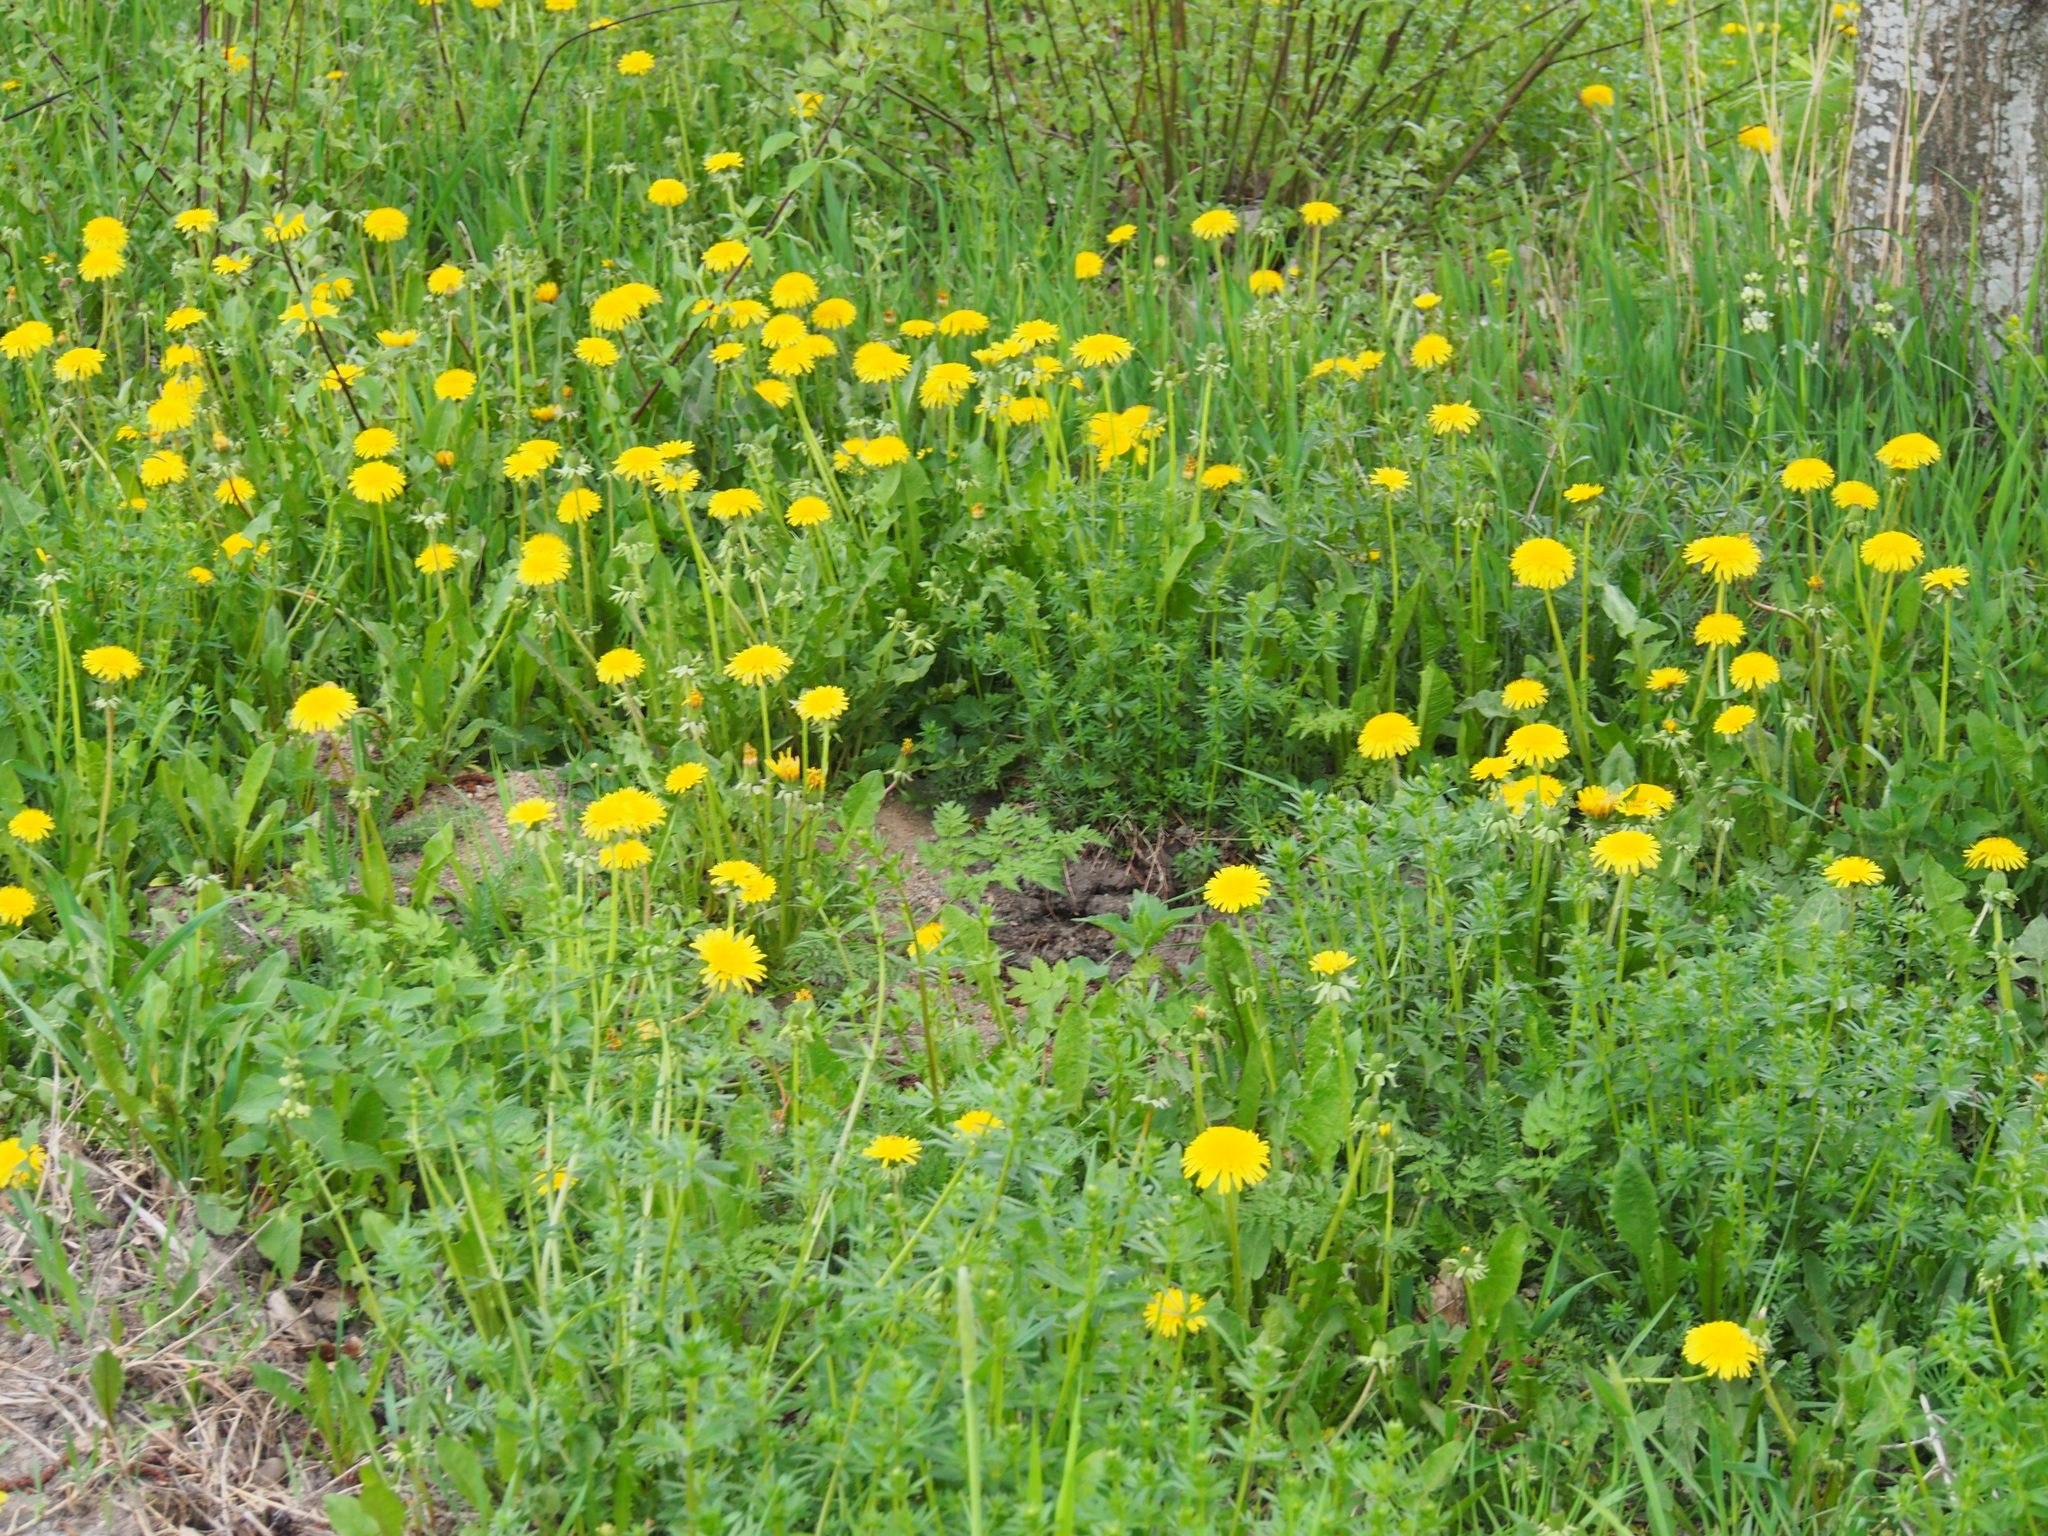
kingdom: Plantae
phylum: Tracheophyta
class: Magnoliopsida
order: Asterales
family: Asteraceae
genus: Taraxacum
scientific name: Taraxacum officinale
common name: Common dandelion
